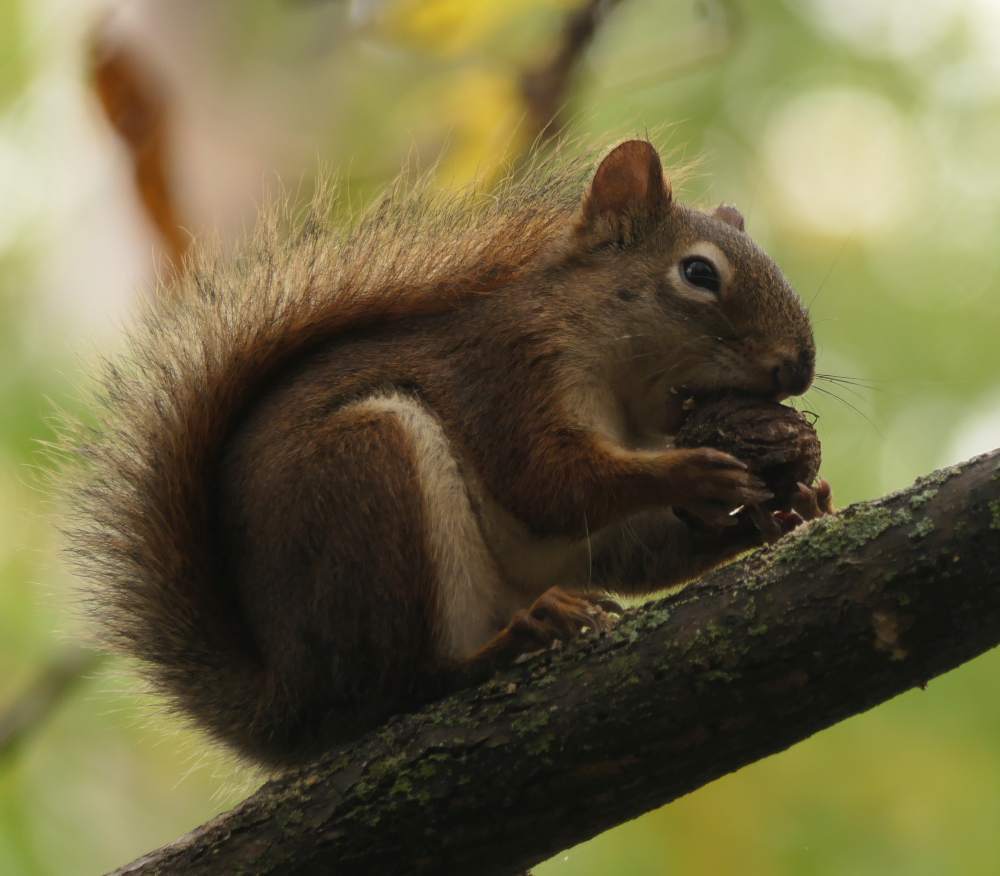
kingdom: Animalia
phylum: Chordata
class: Mammalia
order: Rodentia
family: Sciuridae
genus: Tamiasciurus
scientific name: Tamiasciurus hudsonicus
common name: Red squirrel
